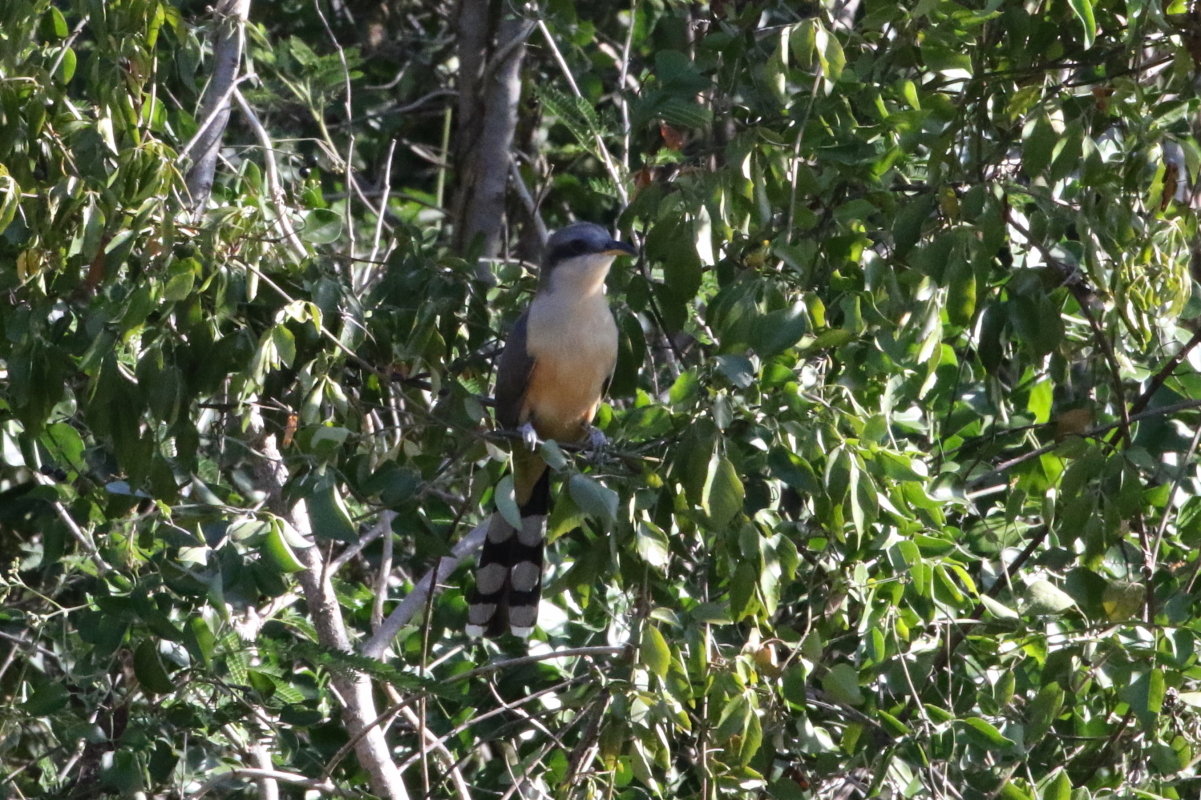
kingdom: Animalia
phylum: Chordata
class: Aves
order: Cuculiformes
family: Cuculidae
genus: Coccyzus
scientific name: Coccyzus minor
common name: Mangrove cuckoo
